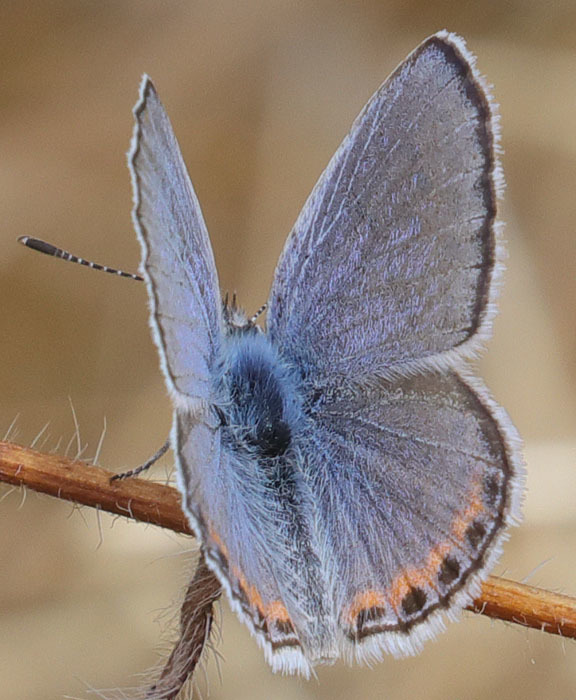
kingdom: Animalia
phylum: Arthropoda
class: Insecta
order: Lepidoptera
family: Lycaenidae
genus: Icaricia
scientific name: Icaricia acmon
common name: Acmon blue
